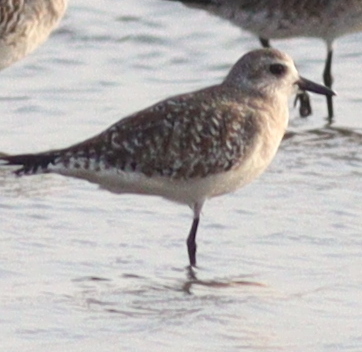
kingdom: Animalia
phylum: Chordata
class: Aves
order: Charadriiformes
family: Charadriidae
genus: Pluvialis
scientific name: Pluvialis squatarola
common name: Grey plover
